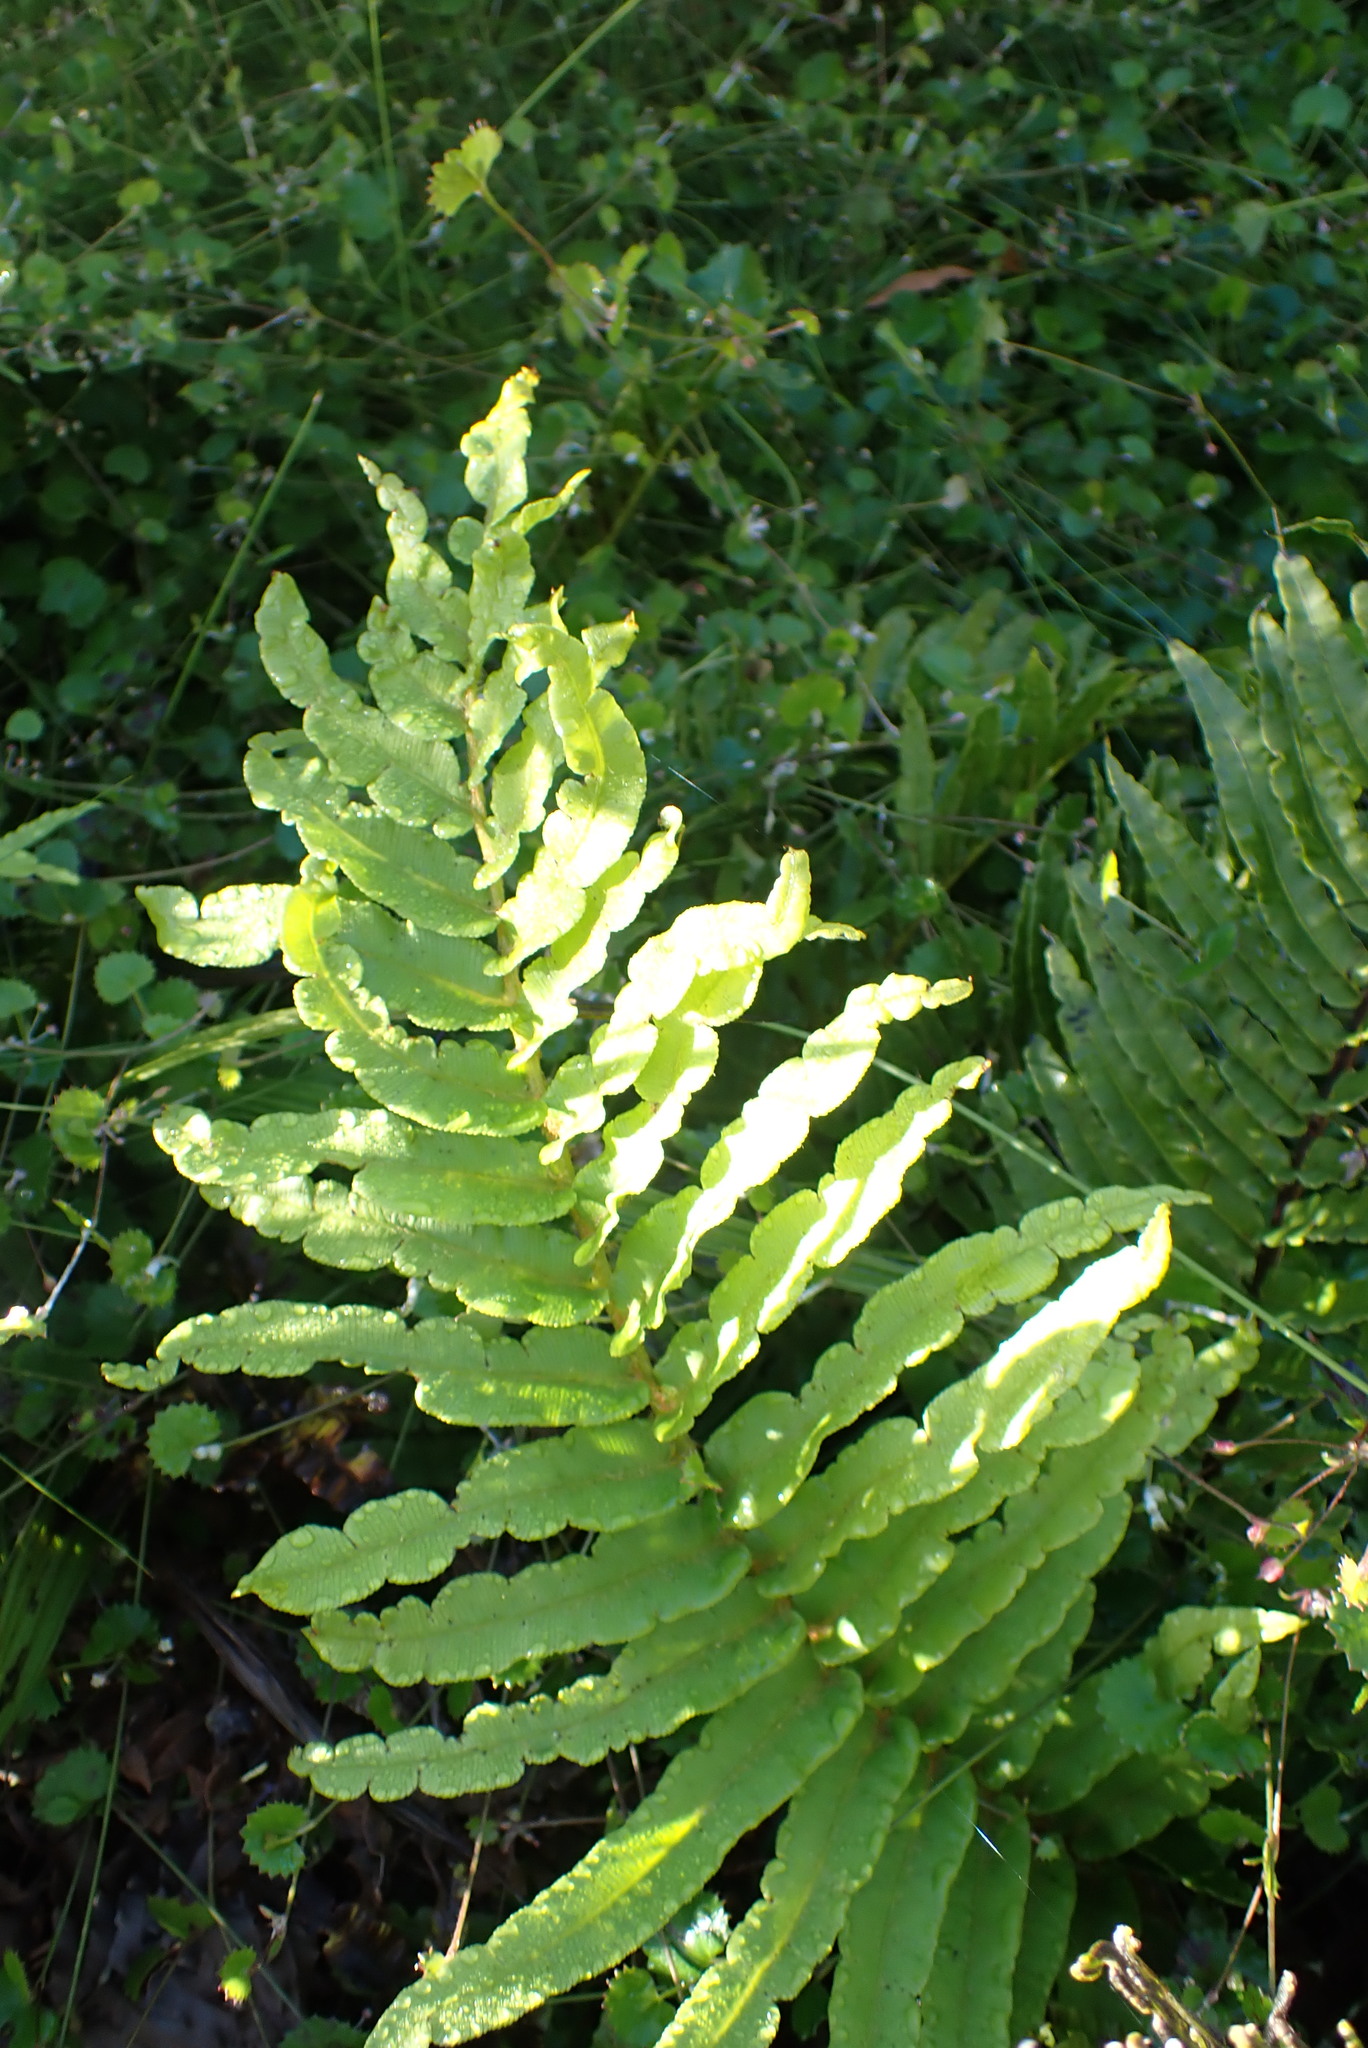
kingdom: Plantae
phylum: Tracheophyta
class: Polypodiopsida
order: Polypodiales
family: Blechnaceae
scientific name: Blechnaceae
